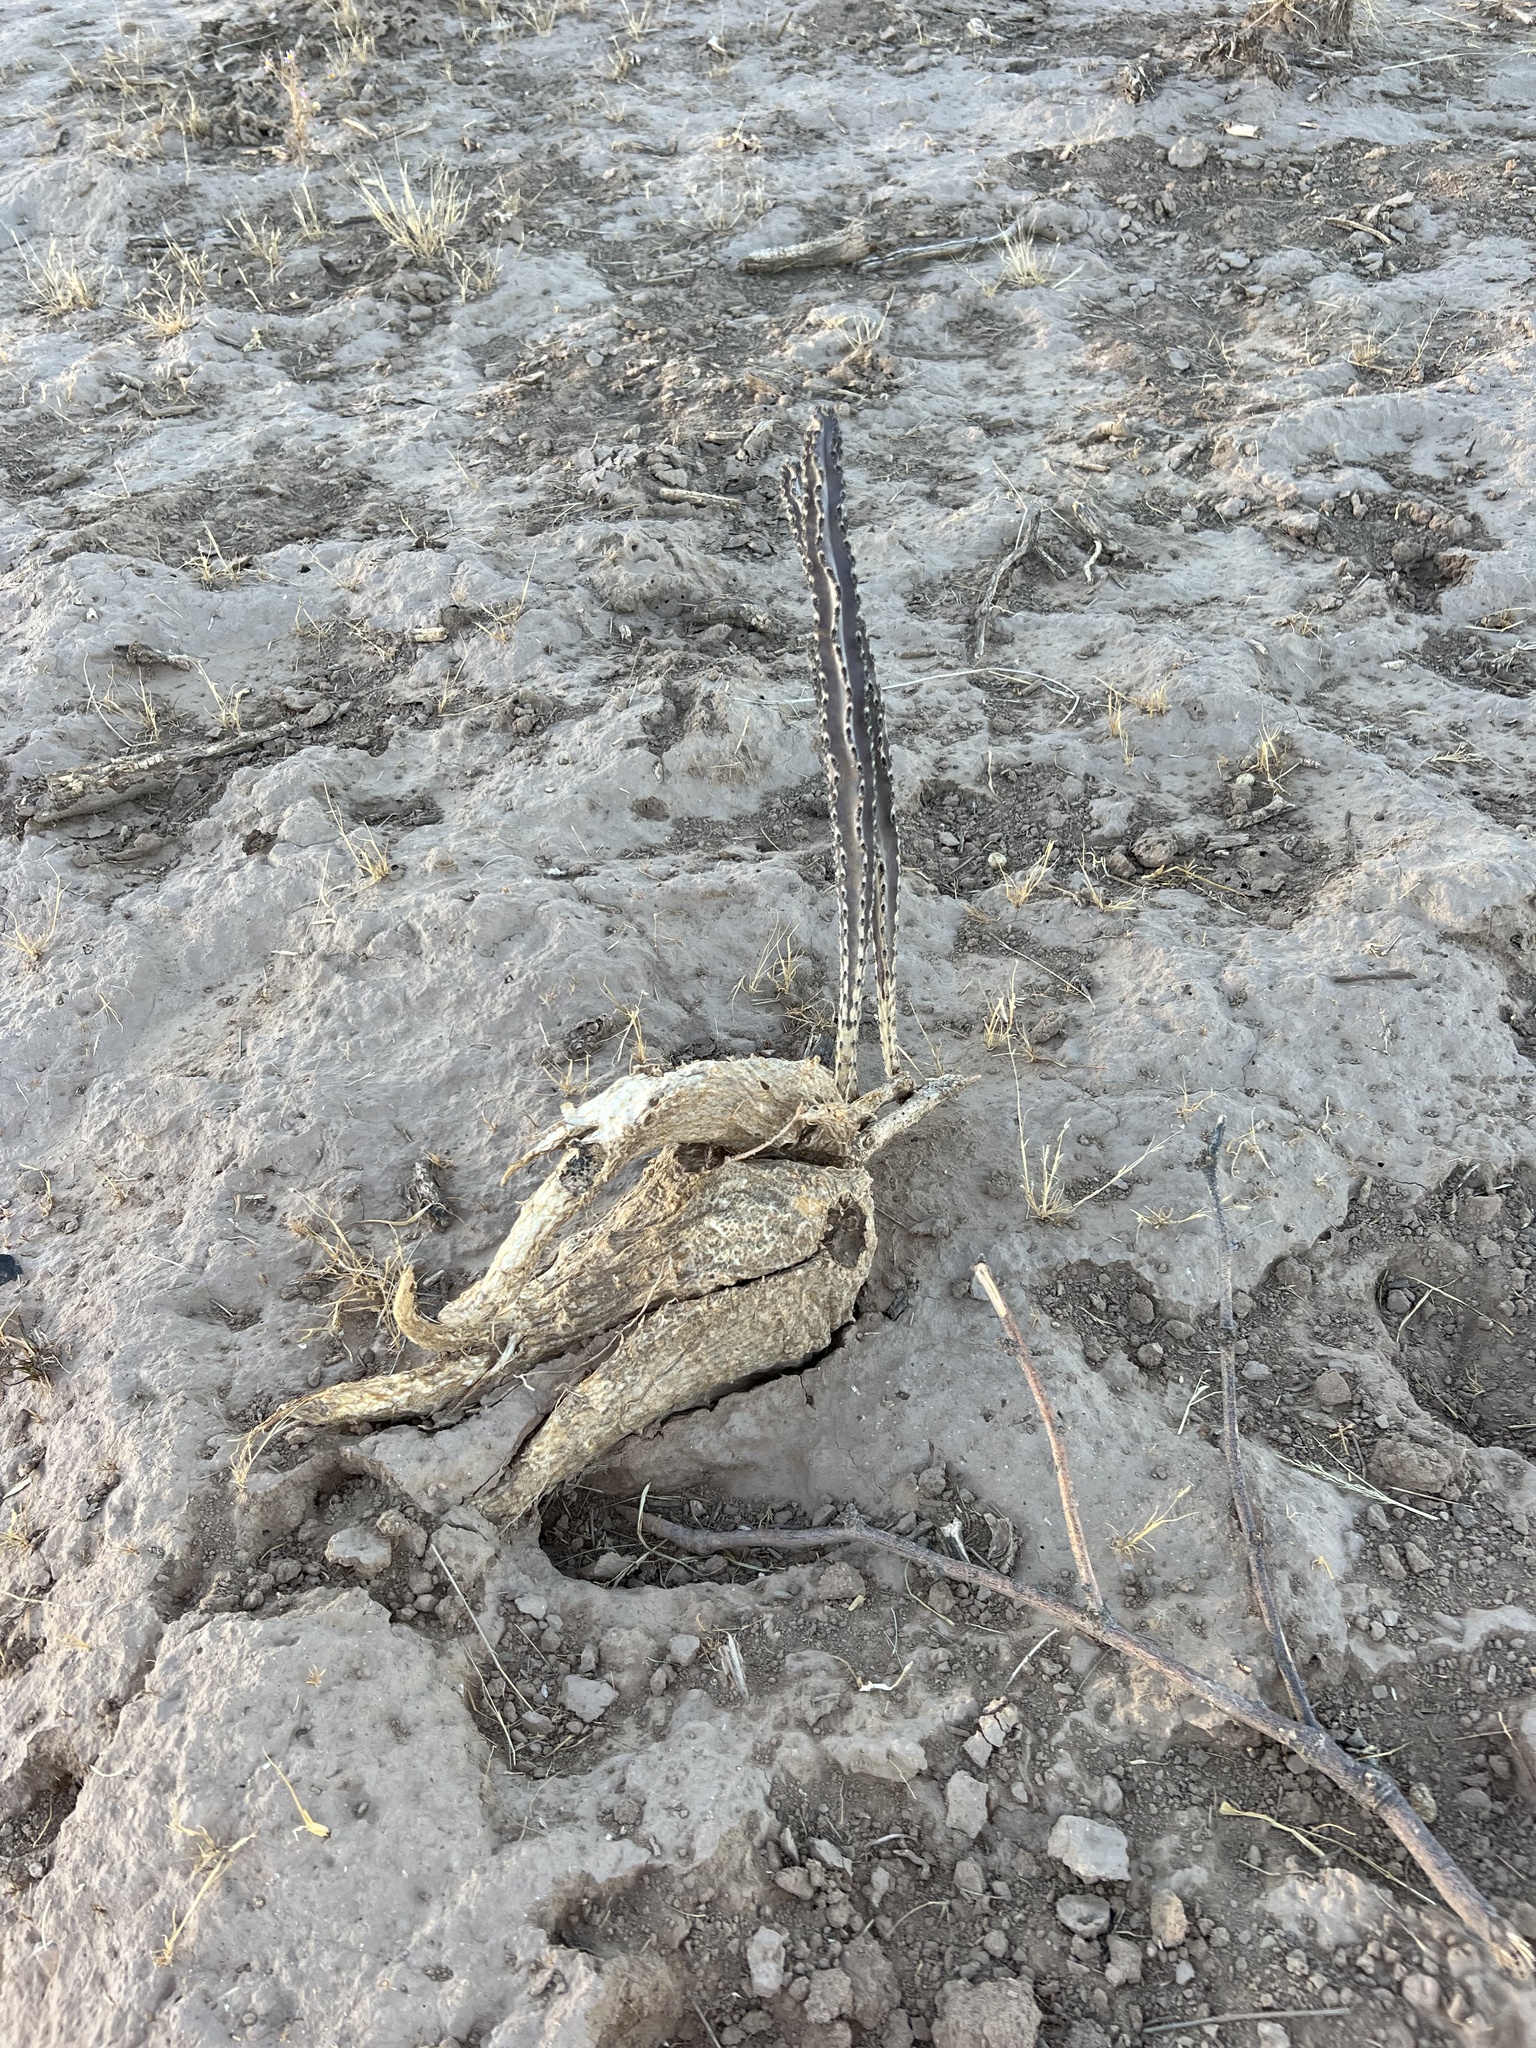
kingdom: Plantae
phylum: Tracheophyta
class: Magnoliopsida
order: Caryophyllales
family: Cactaceae
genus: Peniocereus
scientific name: Peniocereus greggii
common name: Desert night-blooming cereus
